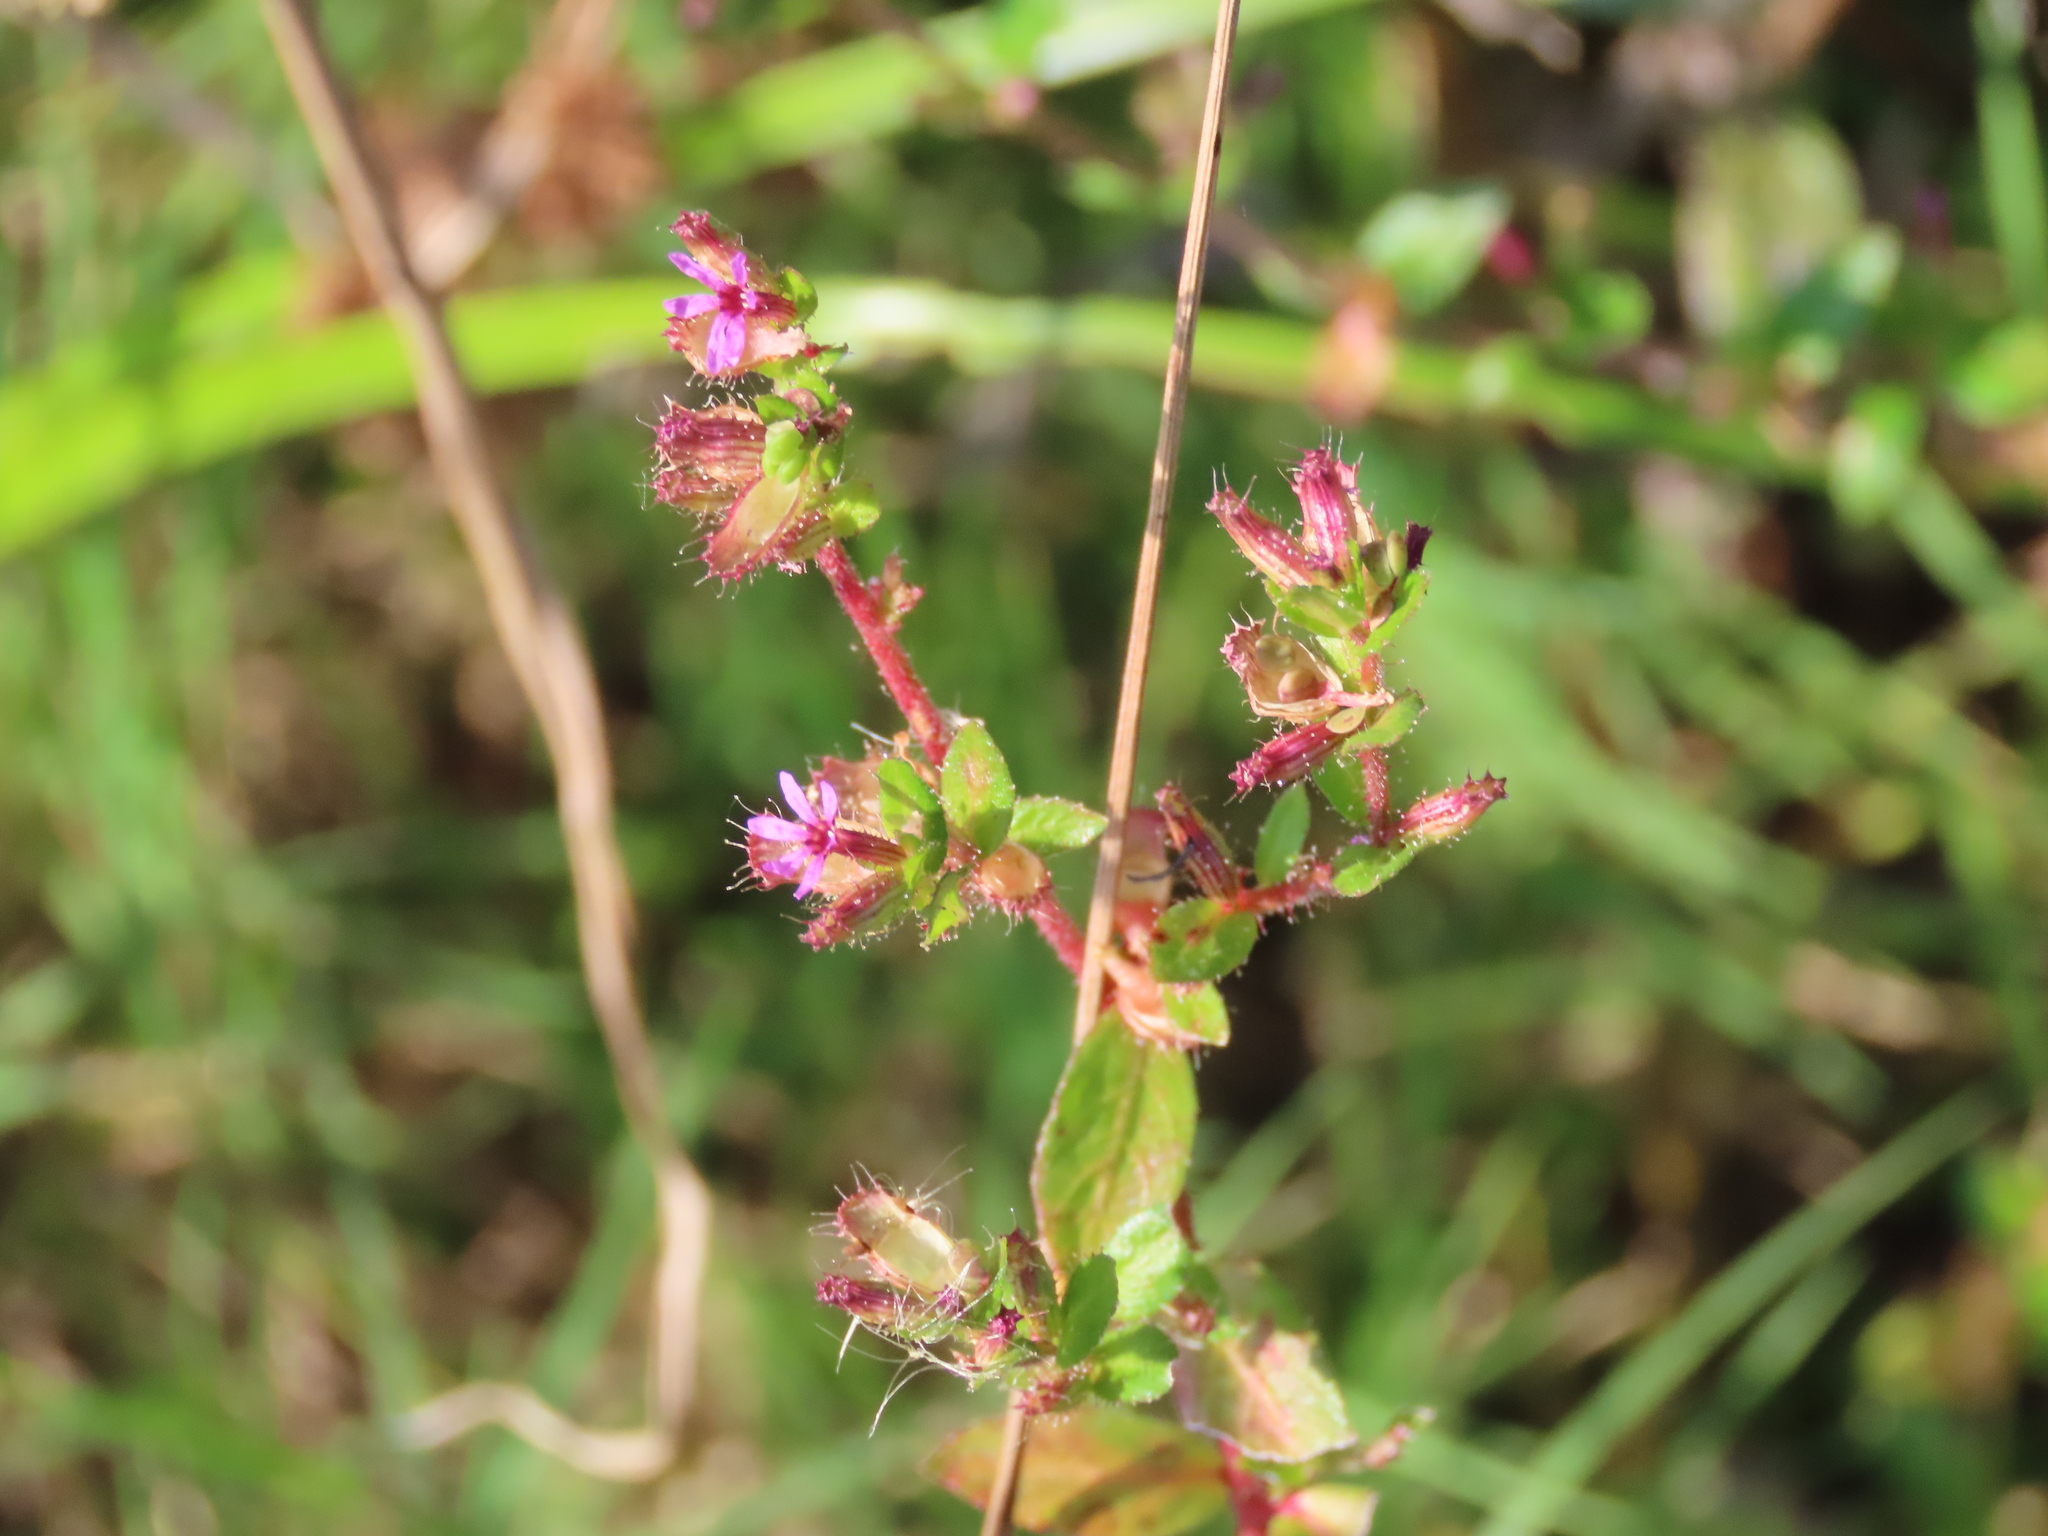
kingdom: Plantae
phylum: Tracheophyta
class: Magnoliopsida
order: Myrtales
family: Lythraceae
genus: Cuphea
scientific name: Cuphea carthagenensis
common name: Colombian waxweed
